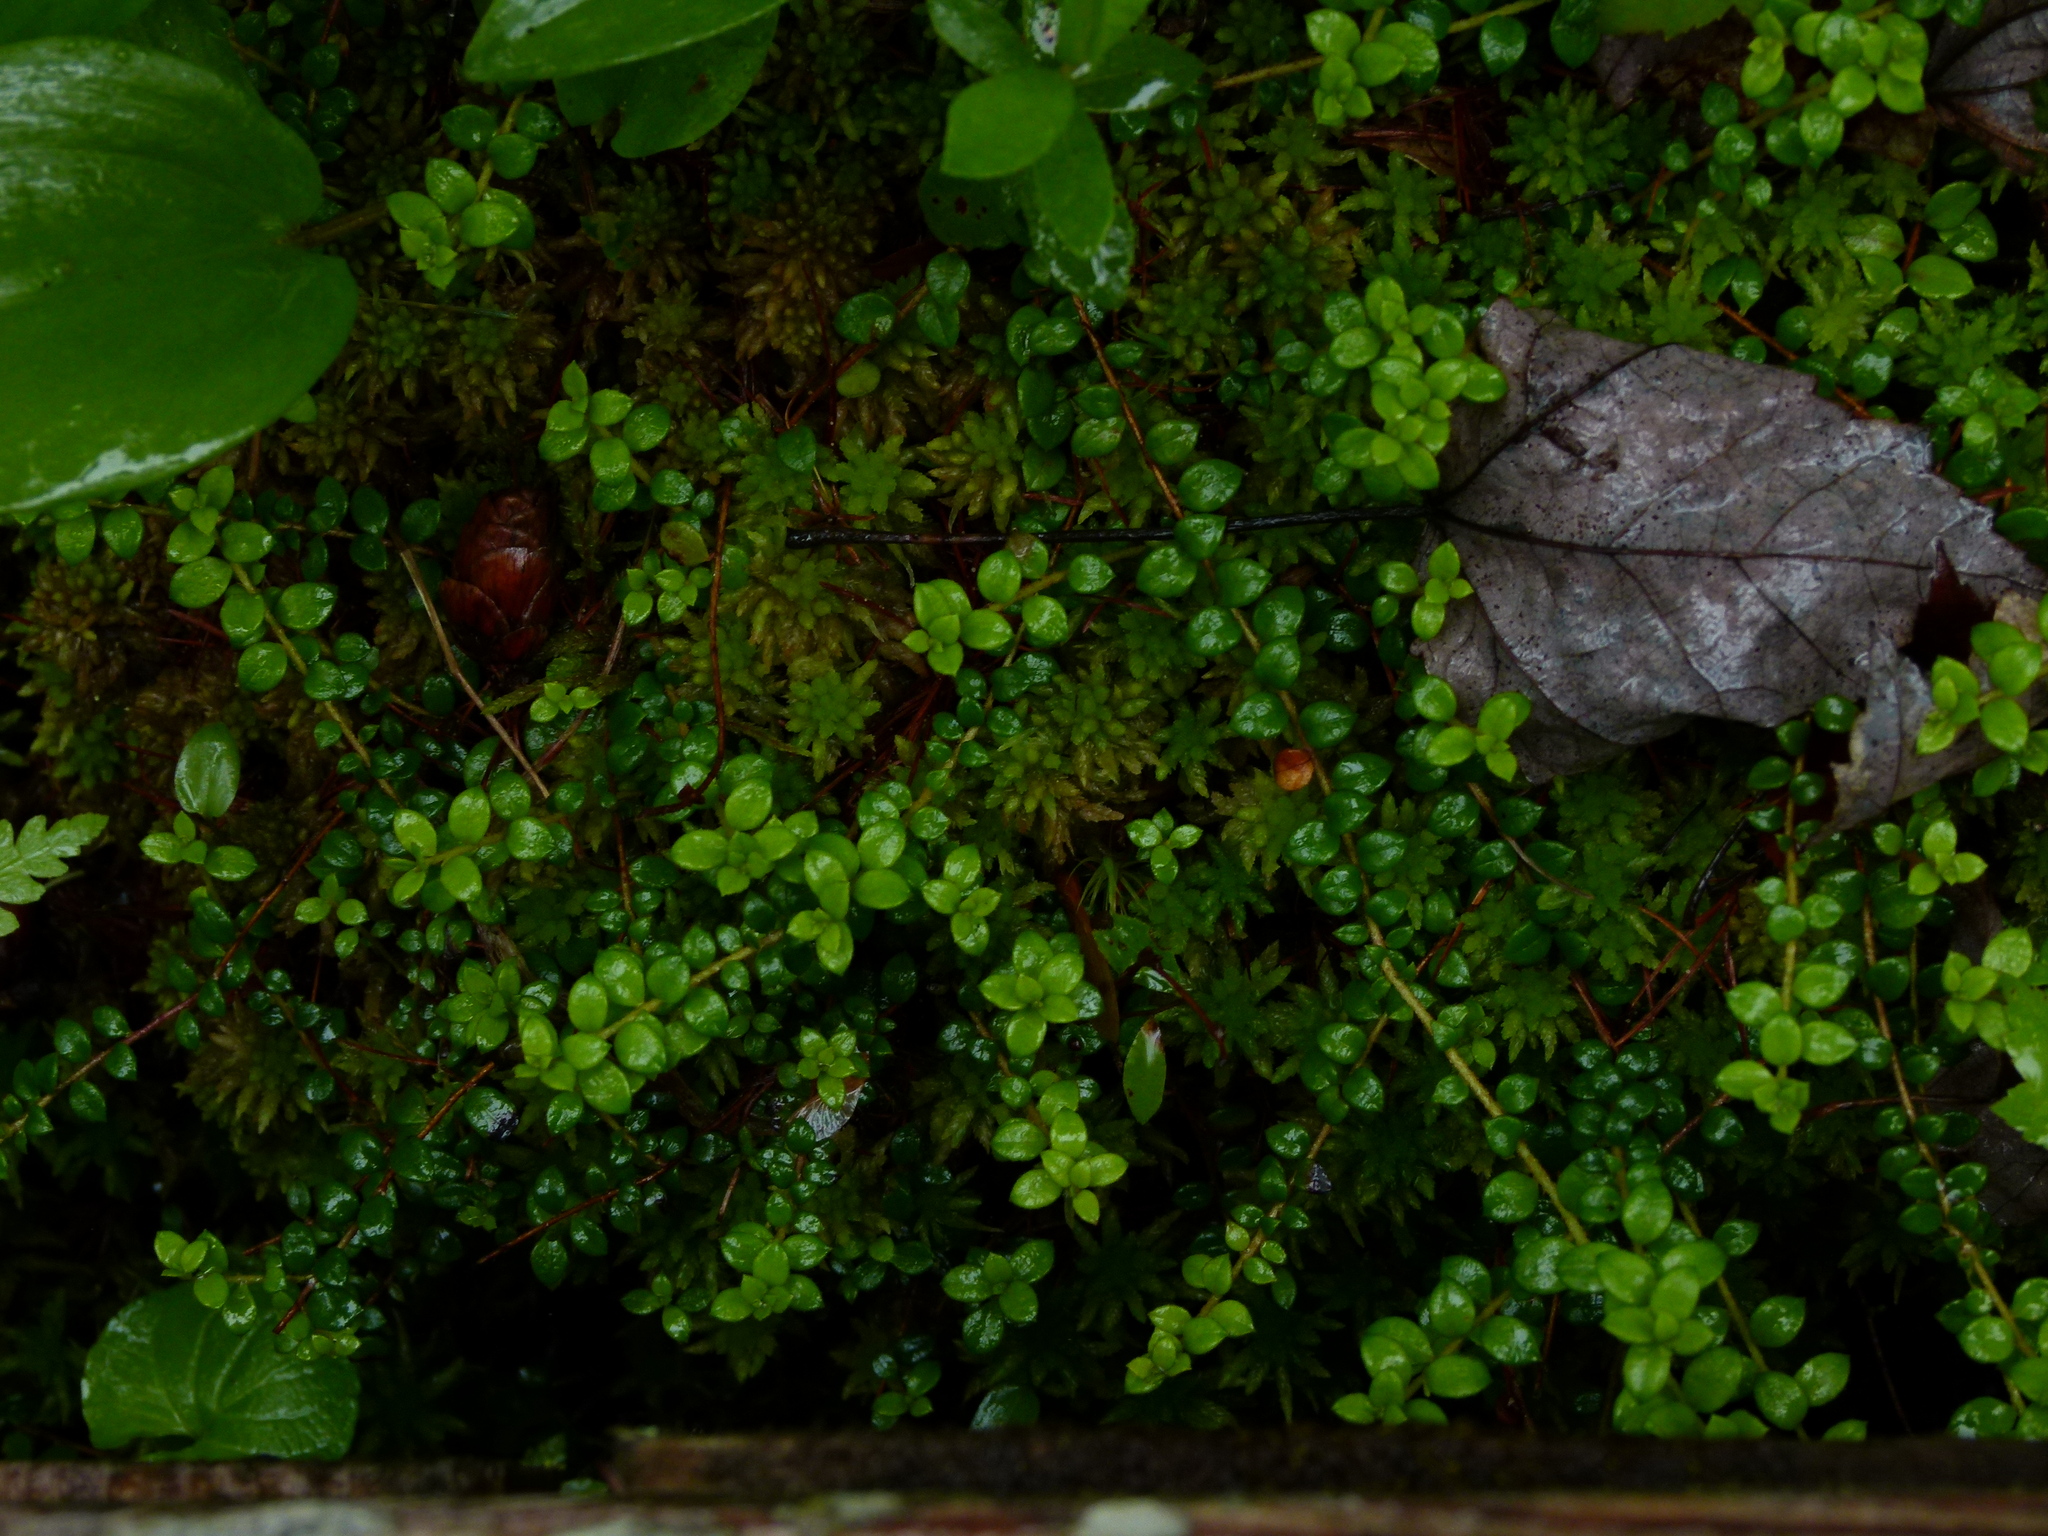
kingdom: Plantae
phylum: Tracheophyta
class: Magnoliopsida
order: Ericales
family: Ericaceae
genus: Gaultheria
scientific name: Gaultheria hispidula
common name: Cancer wintergreen
